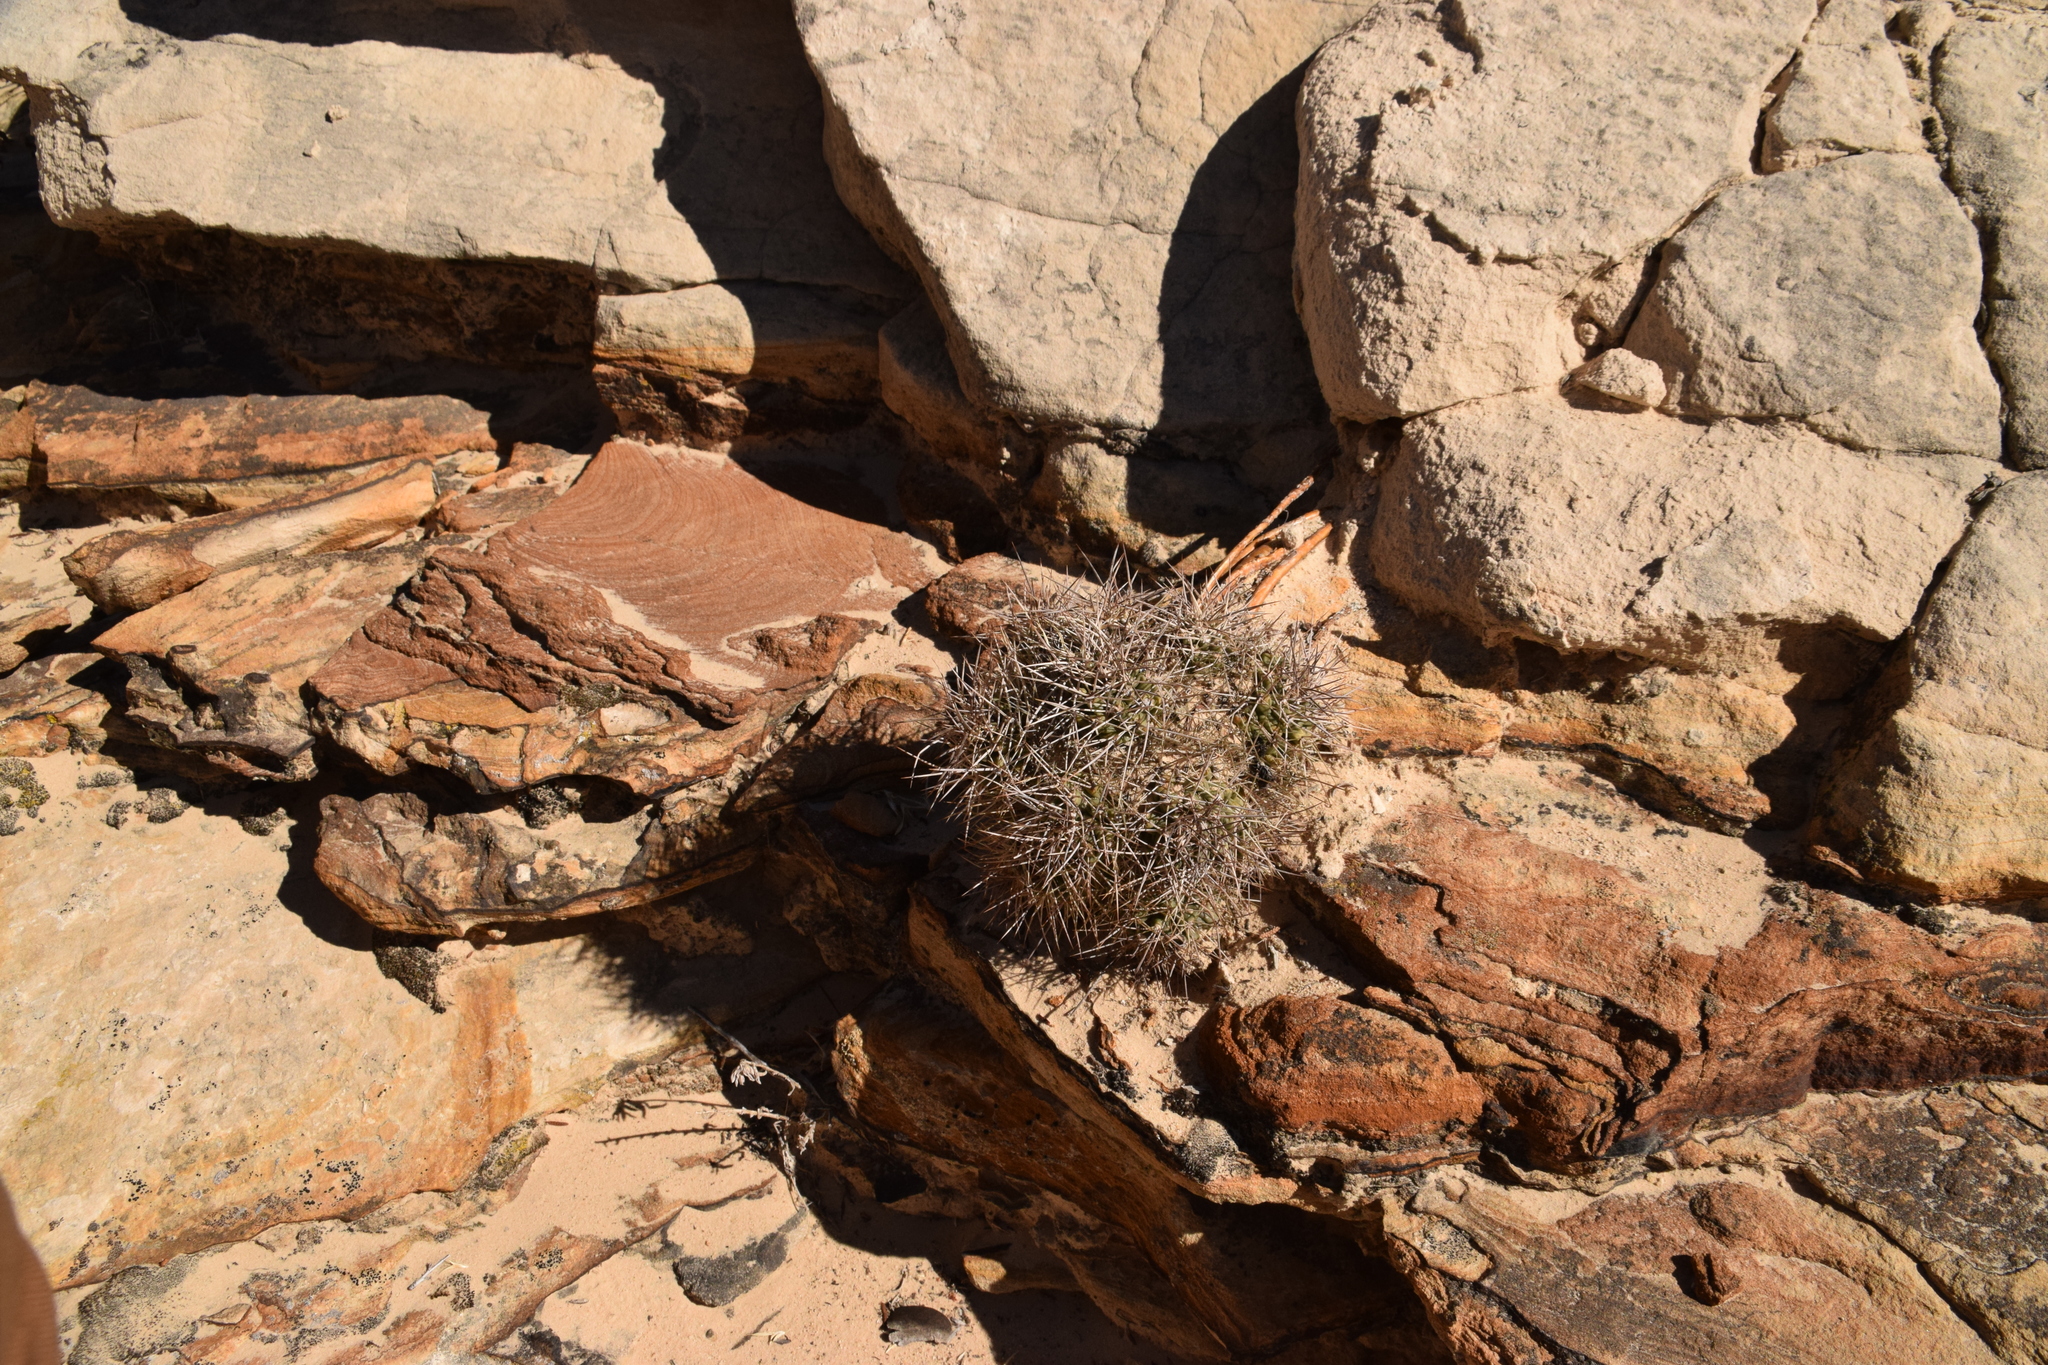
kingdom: Plantae
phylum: Tracheophyta
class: Magnoliopsida
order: Caryophyllales
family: Cactaceae
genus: Echinocereus
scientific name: Echinocereus triglochidiatus
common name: Claretcup hedgehog
